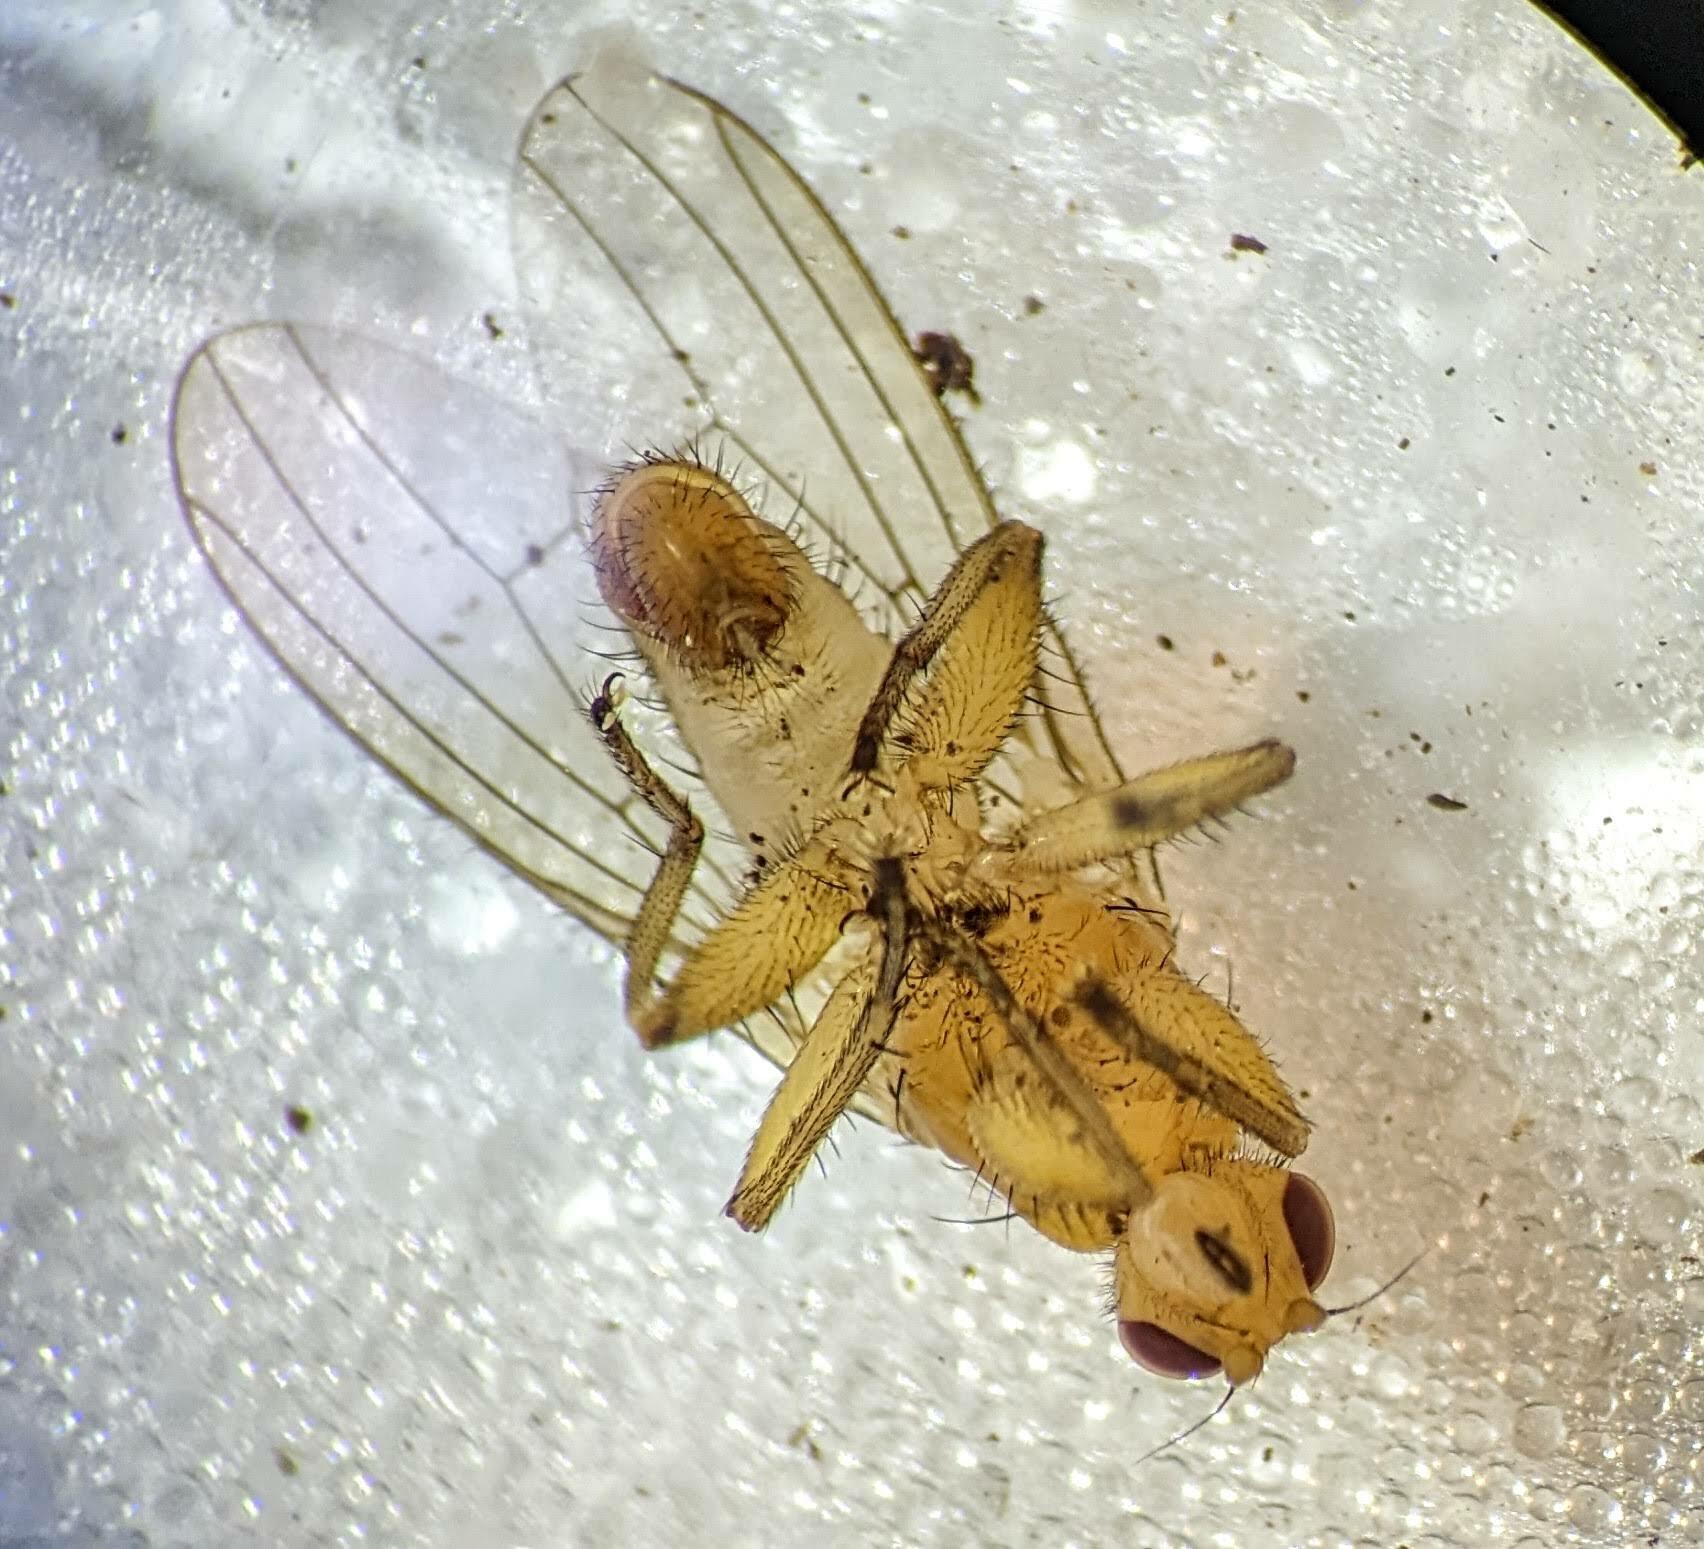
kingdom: Animalia
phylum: Arthropoda
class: Insecta
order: Diptera
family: Heleomyzidae
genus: Suillia
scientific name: Suillia convergens
